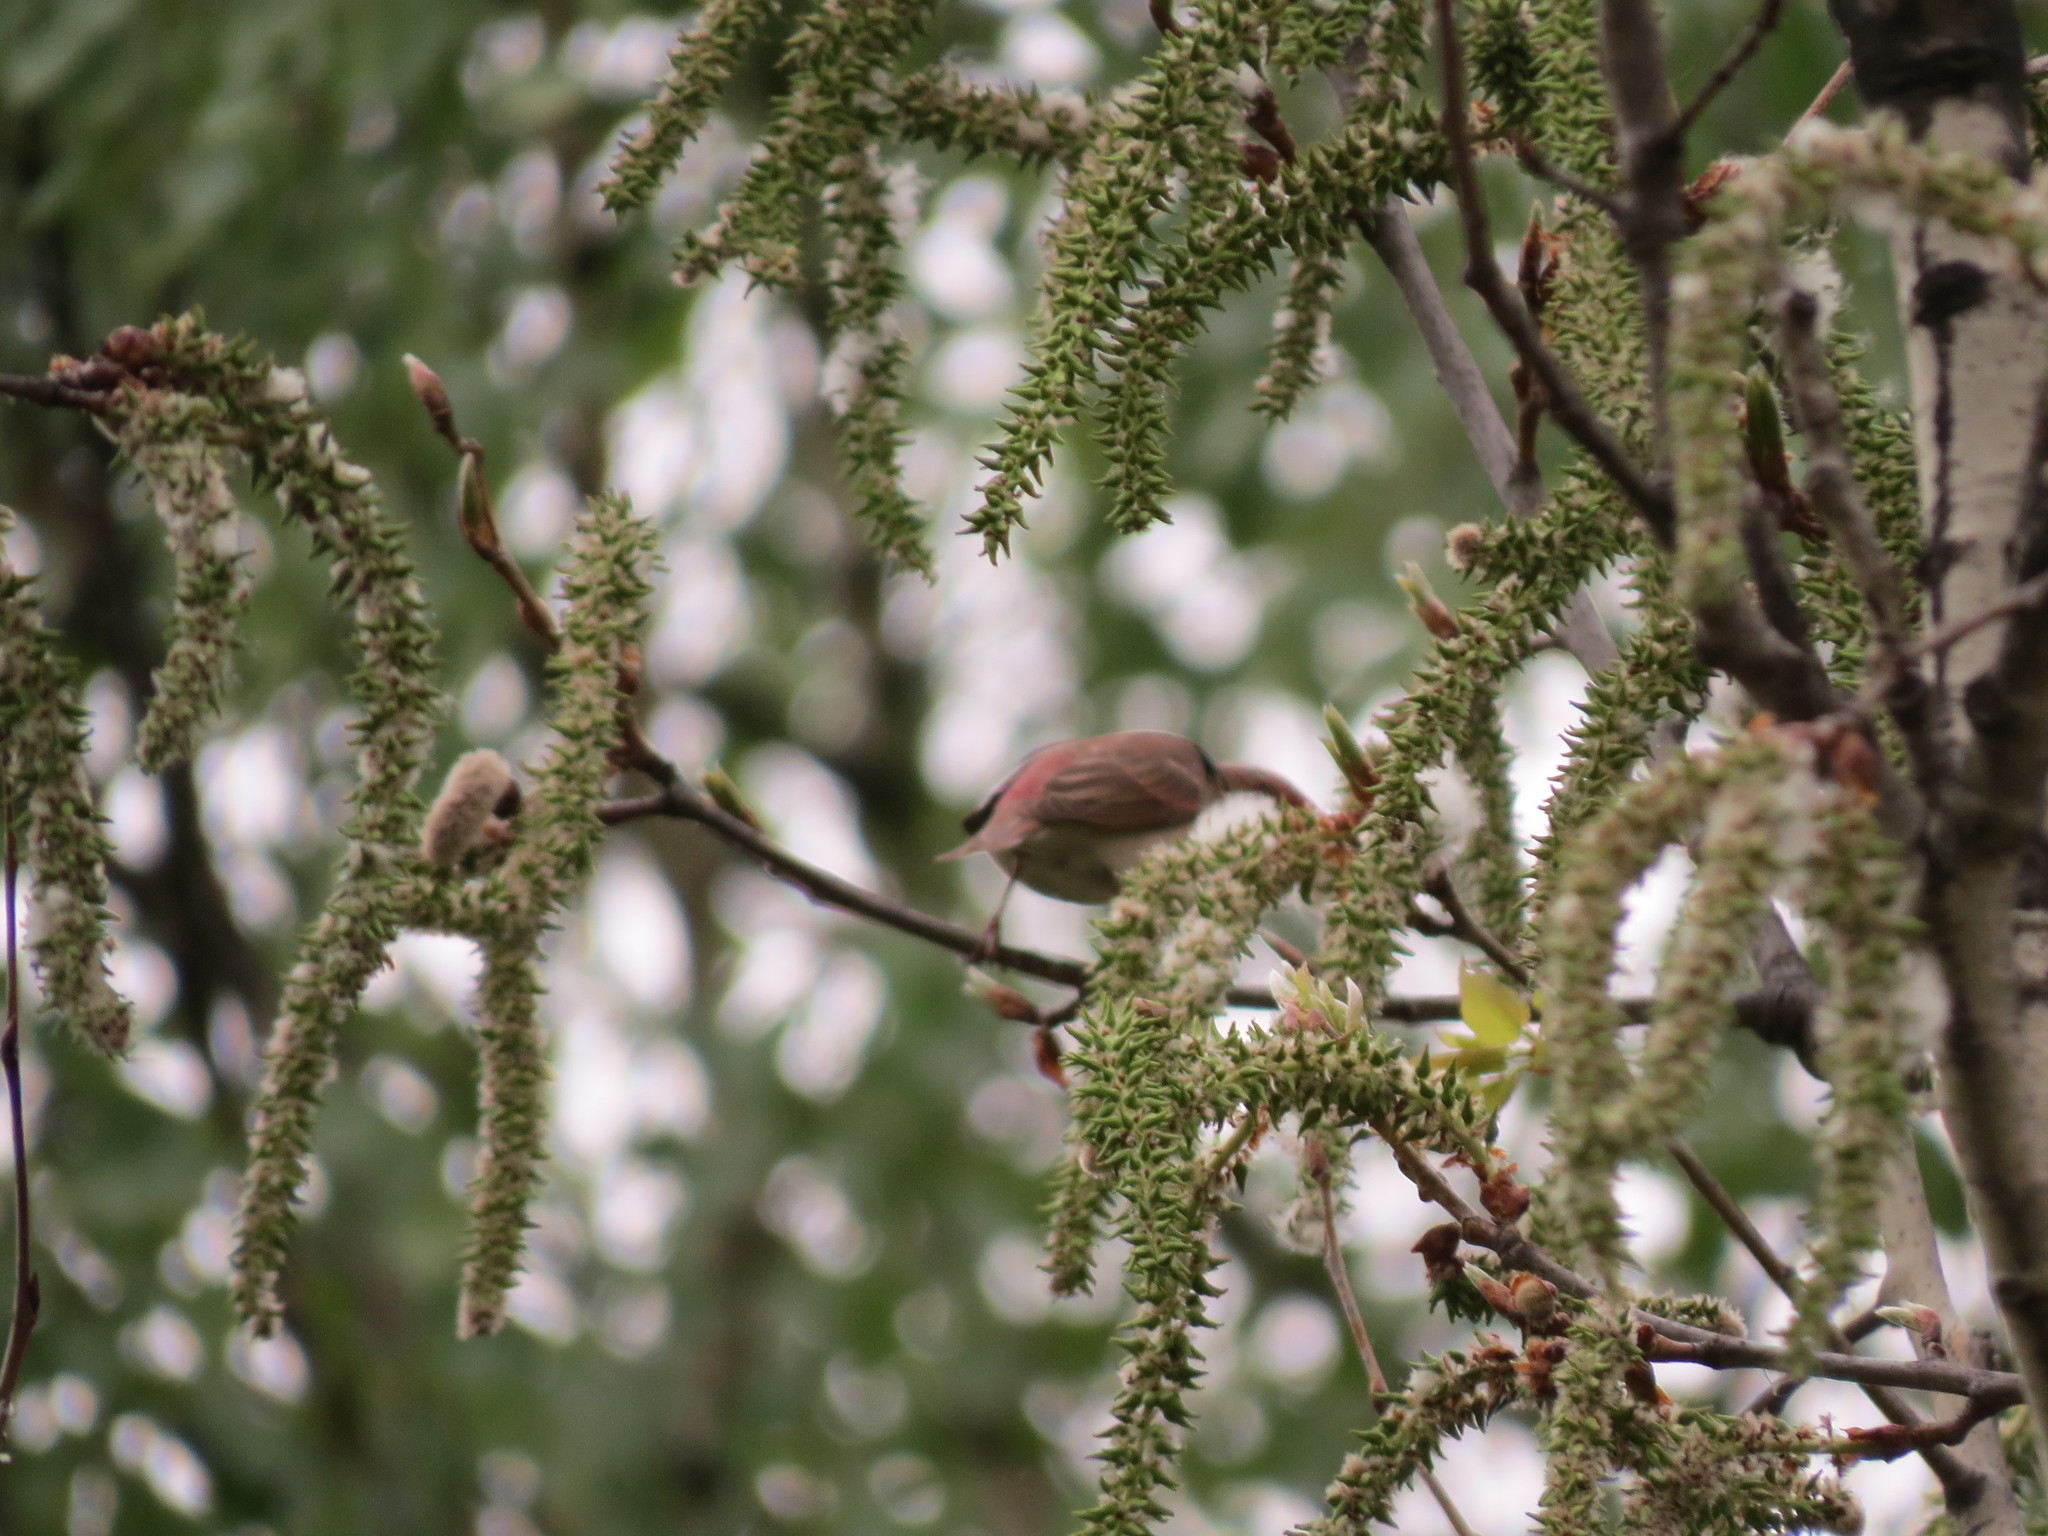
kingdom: Animalia
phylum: Chordata
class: Aves
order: Passeriformes
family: Fringillidae
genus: Carpodacus
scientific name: Carpodacus erythrinus
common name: Common rosefinch
